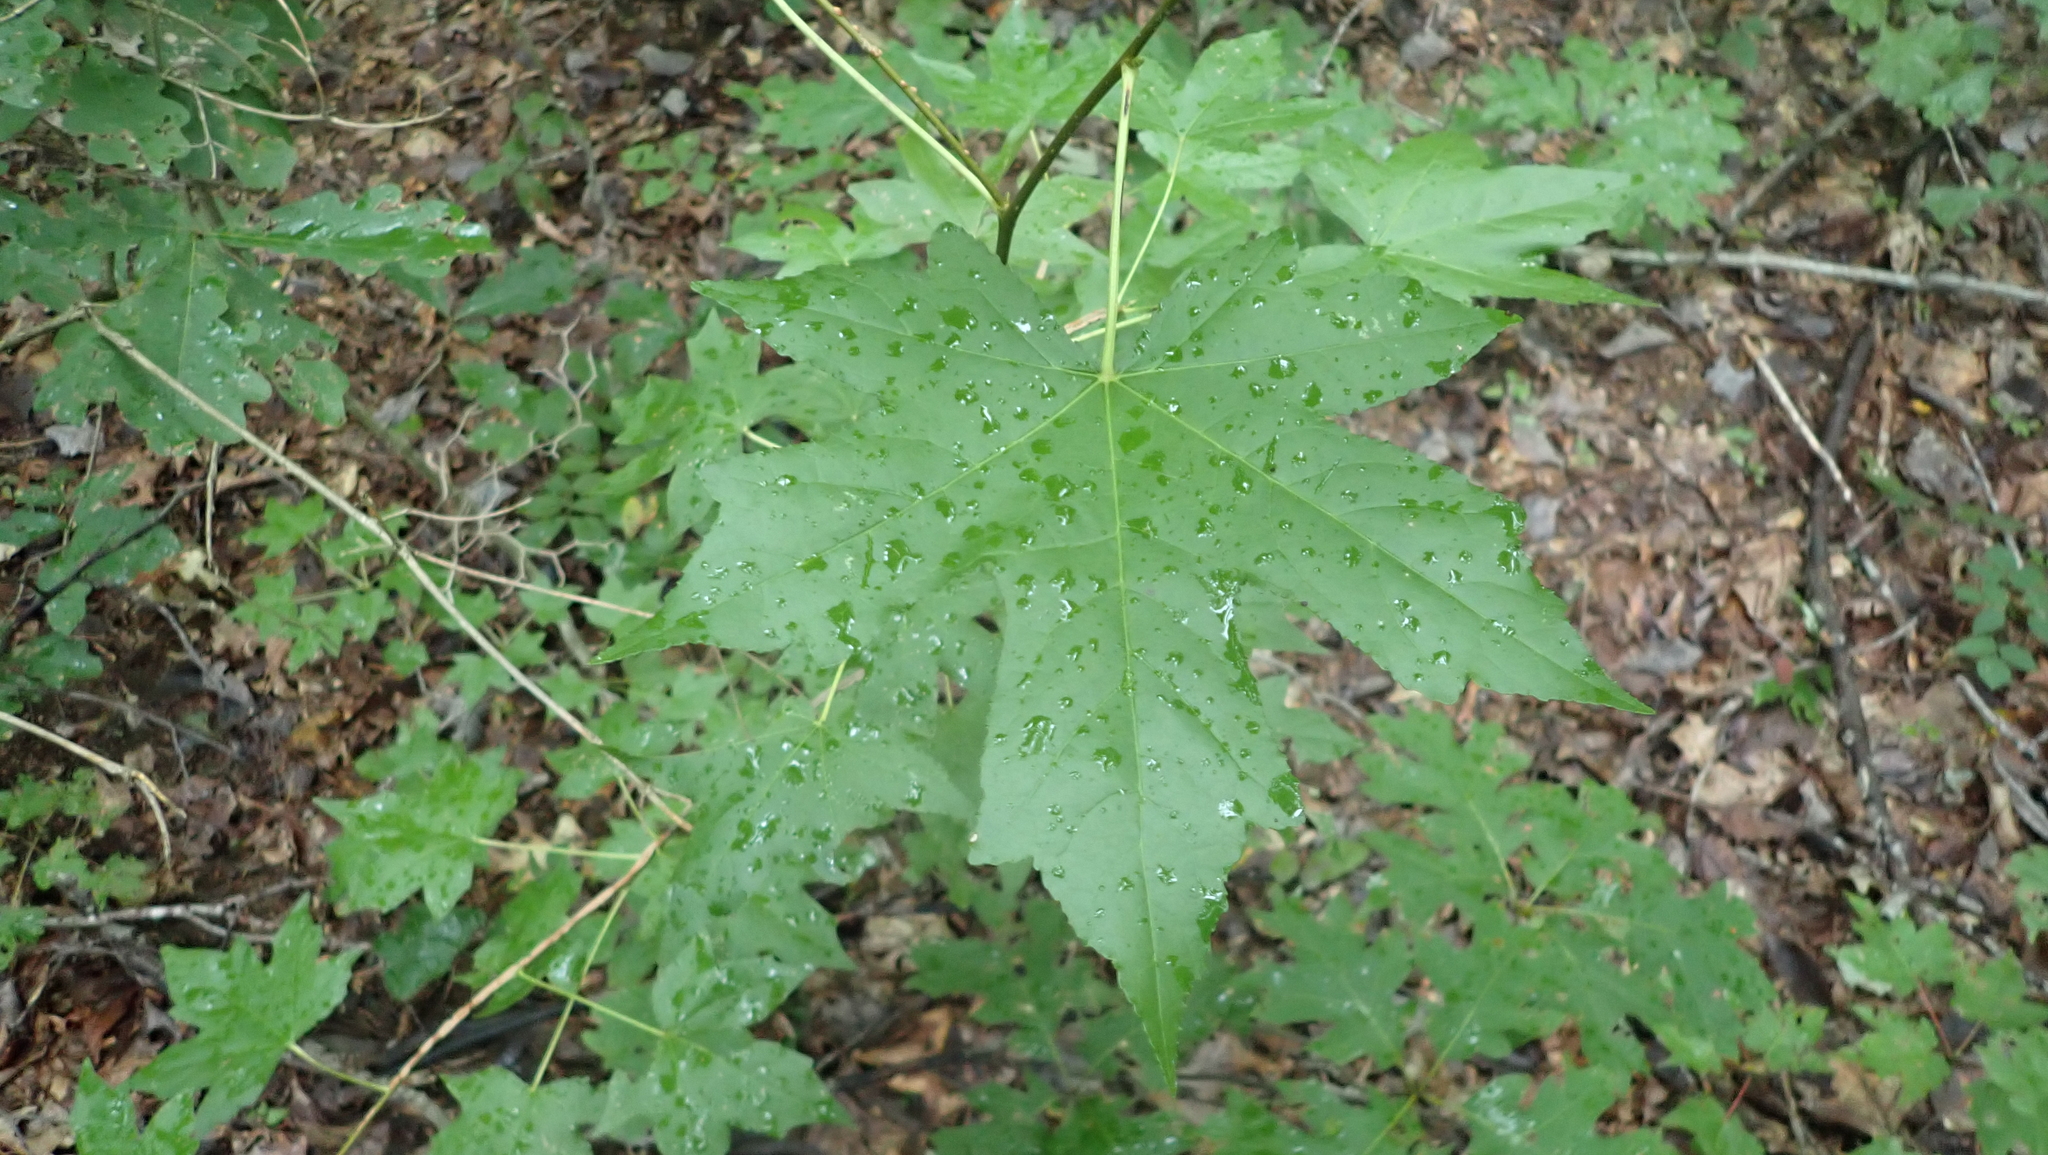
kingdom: Plantae
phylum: Tracheophyta
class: Magnoliopsida
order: Saxifragales
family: Altingiaceae
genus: Liquidambar
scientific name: Liquidambar styraciflua
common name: Sweet gum
